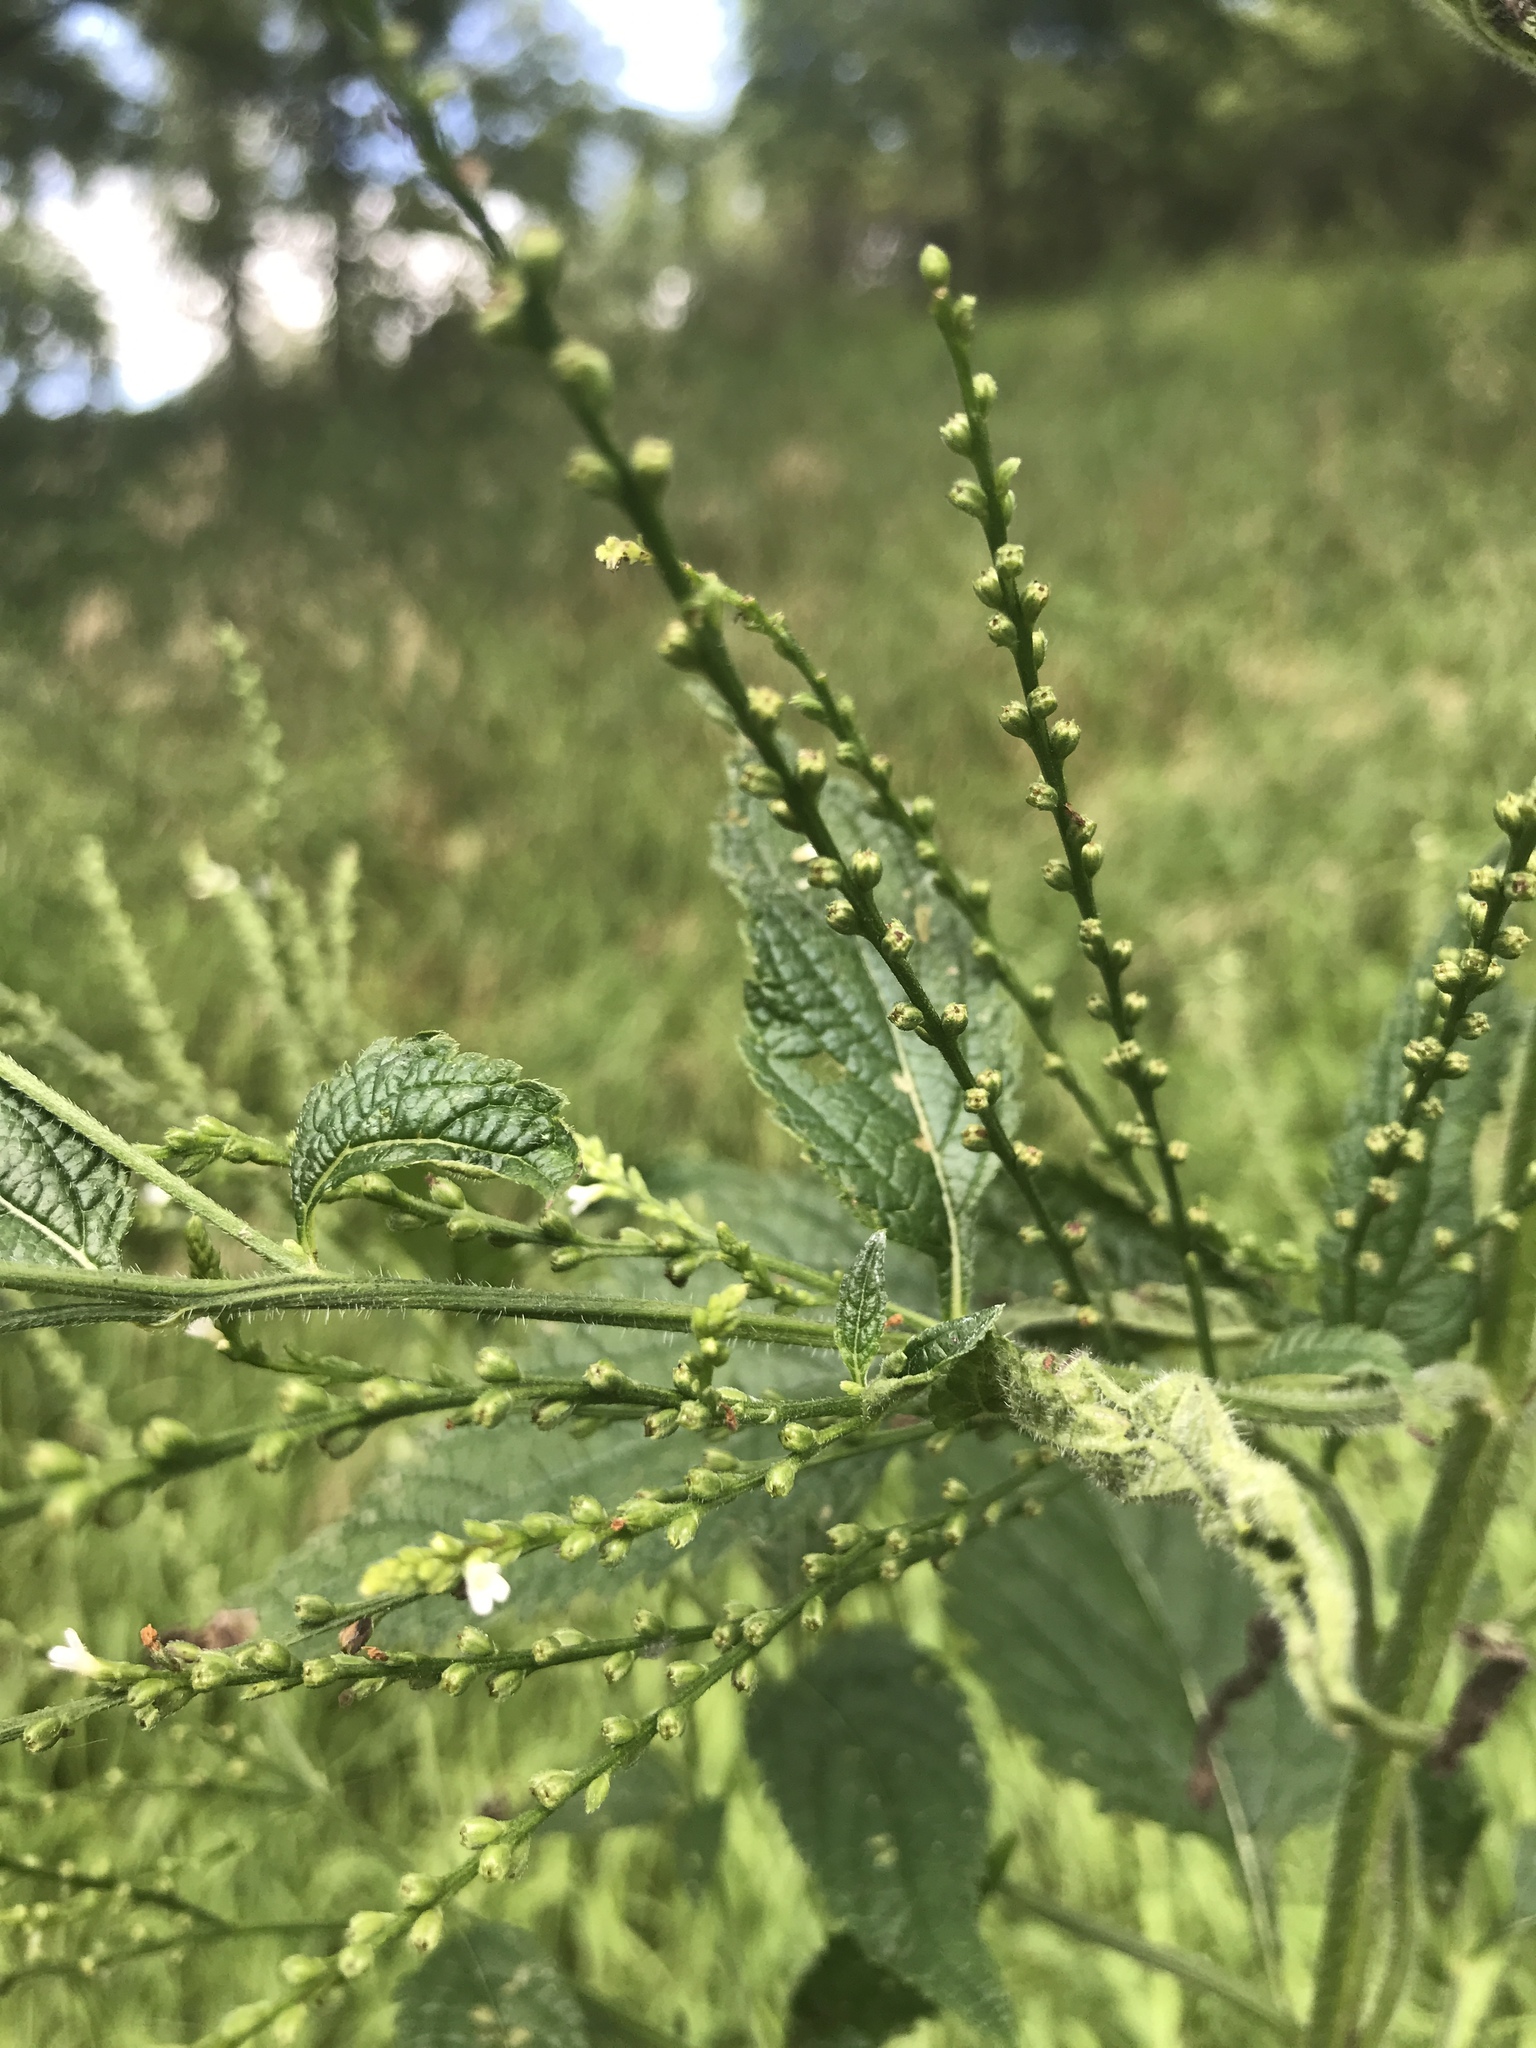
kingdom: Plantae
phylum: Tracheophyta
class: Magnoliopsida
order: Lamiales
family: Verbenaceae
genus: Verbena
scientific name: Verbena urticifolia
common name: Nettle-leaved vervain
